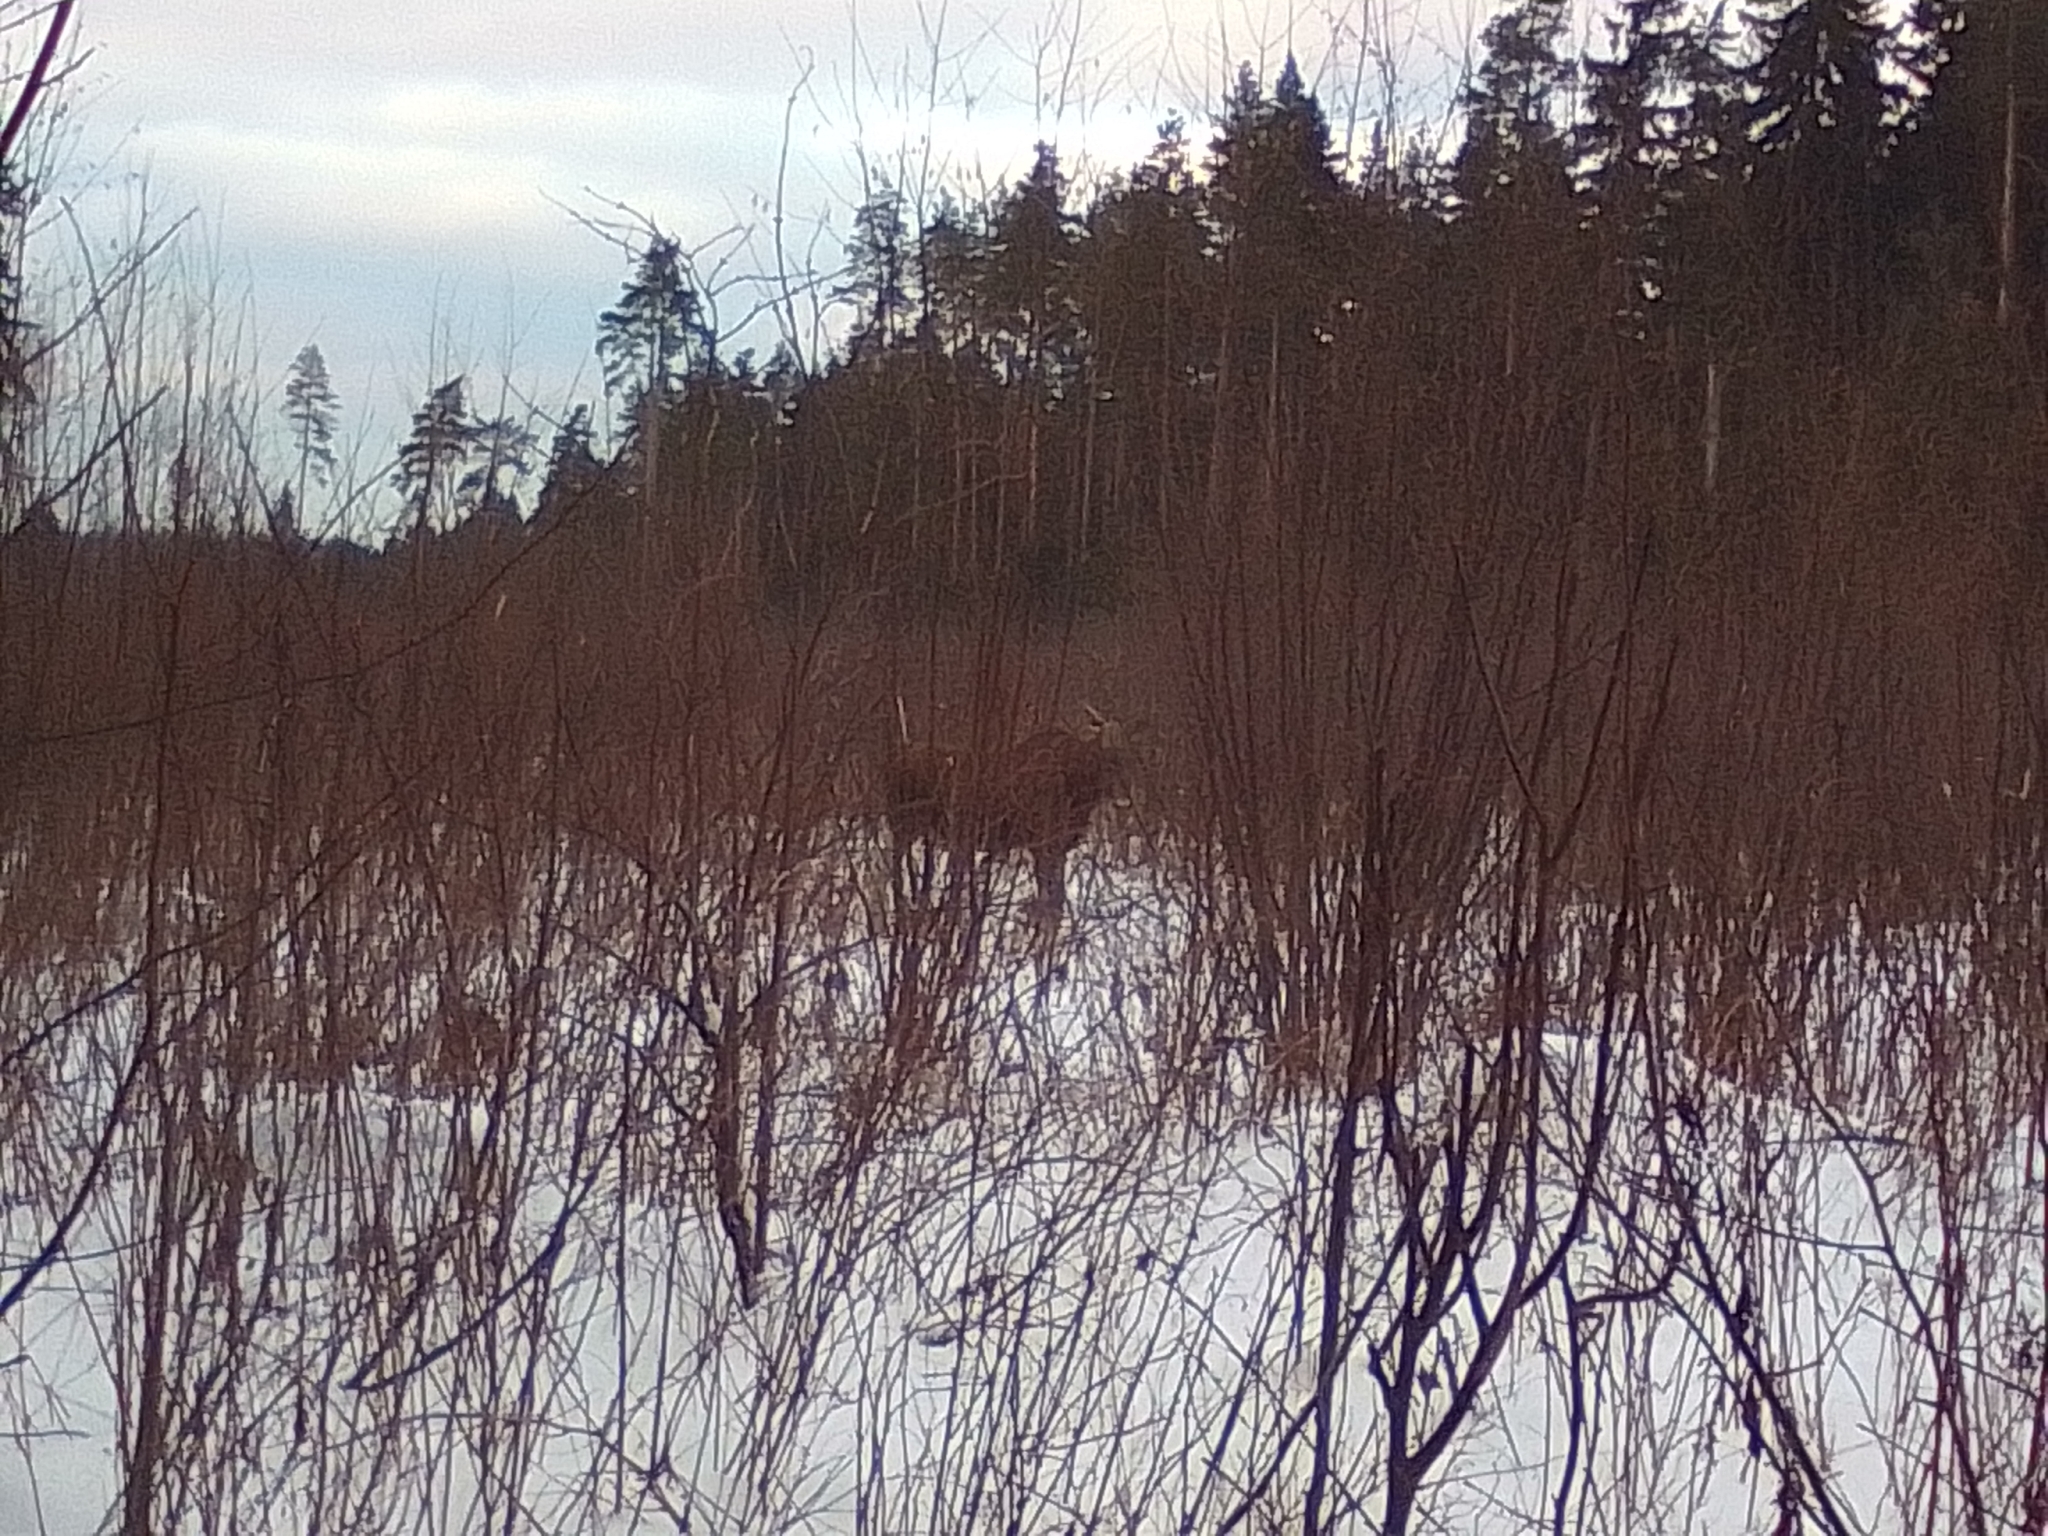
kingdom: Animalia
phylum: Chordata
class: Mammalia
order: Artiodactyla
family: Cervidae
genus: Alces
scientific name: Alces alces
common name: Moose
